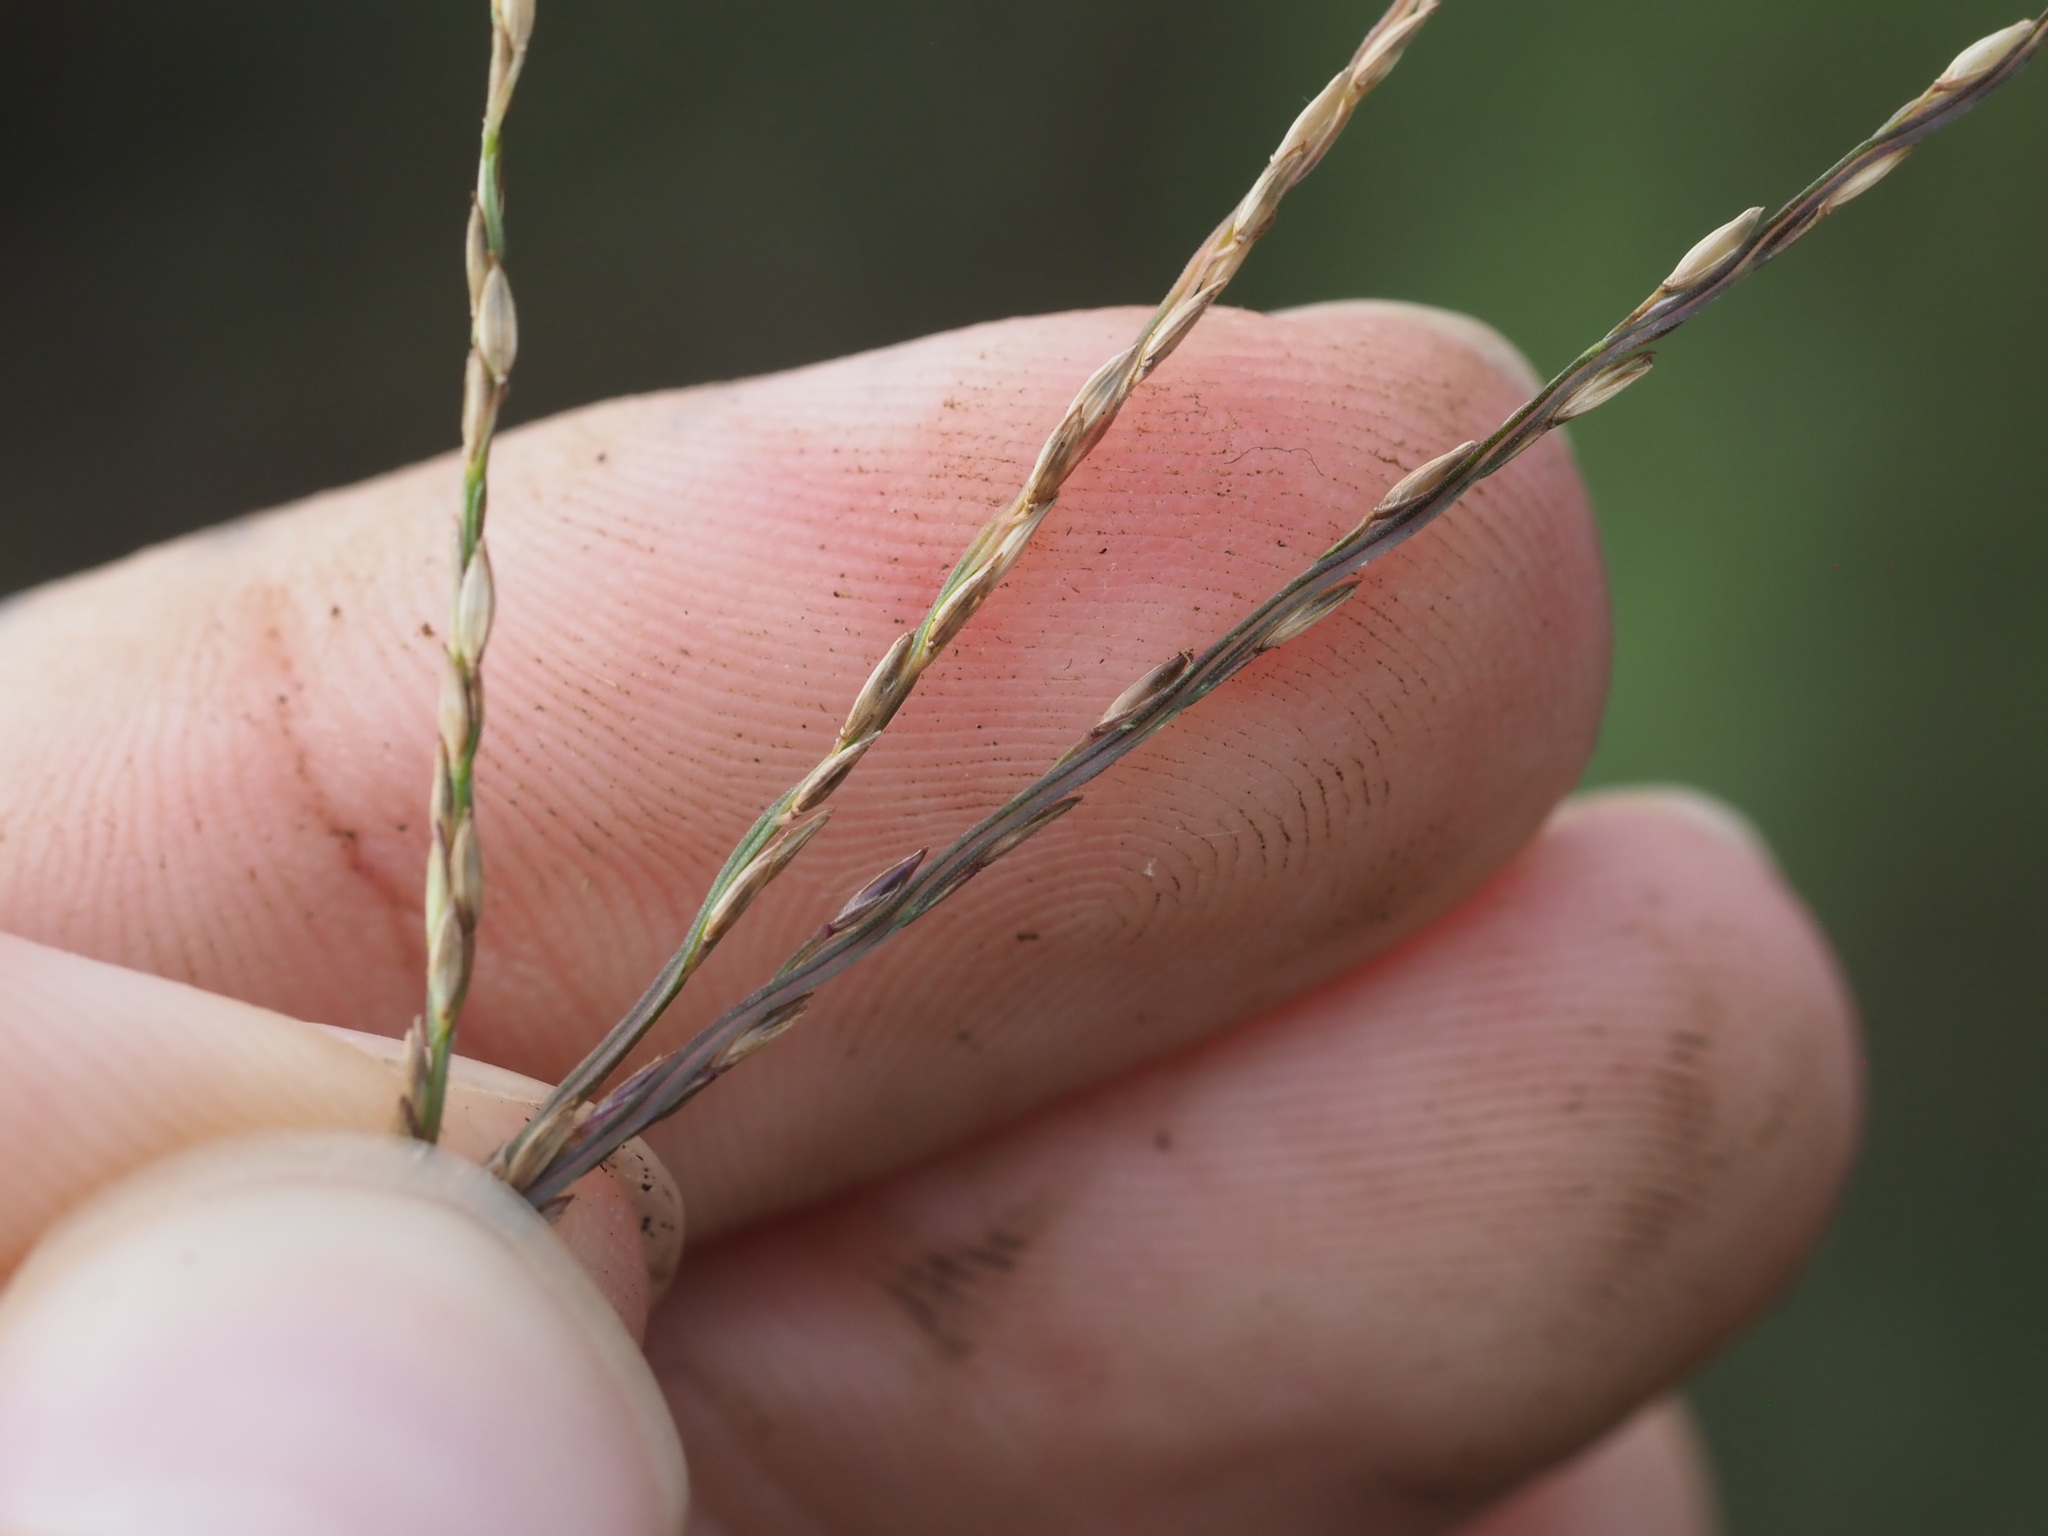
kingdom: Plantae
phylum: Tracheophyta
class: Liliopsida
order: Poales
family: Poaceae
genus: Digitaria
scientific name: Digitaria radicosa
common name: Trailing crabgrass
